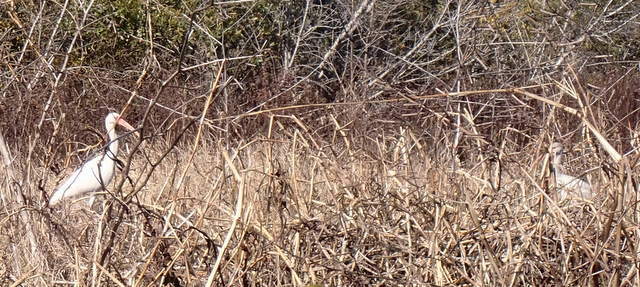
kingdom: Animalia
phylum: Chordata
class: Aves
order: Pelecaniformes
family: Threskiornithidae
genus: Eudocimus
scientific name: Eudocimus albus
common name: White ibis
